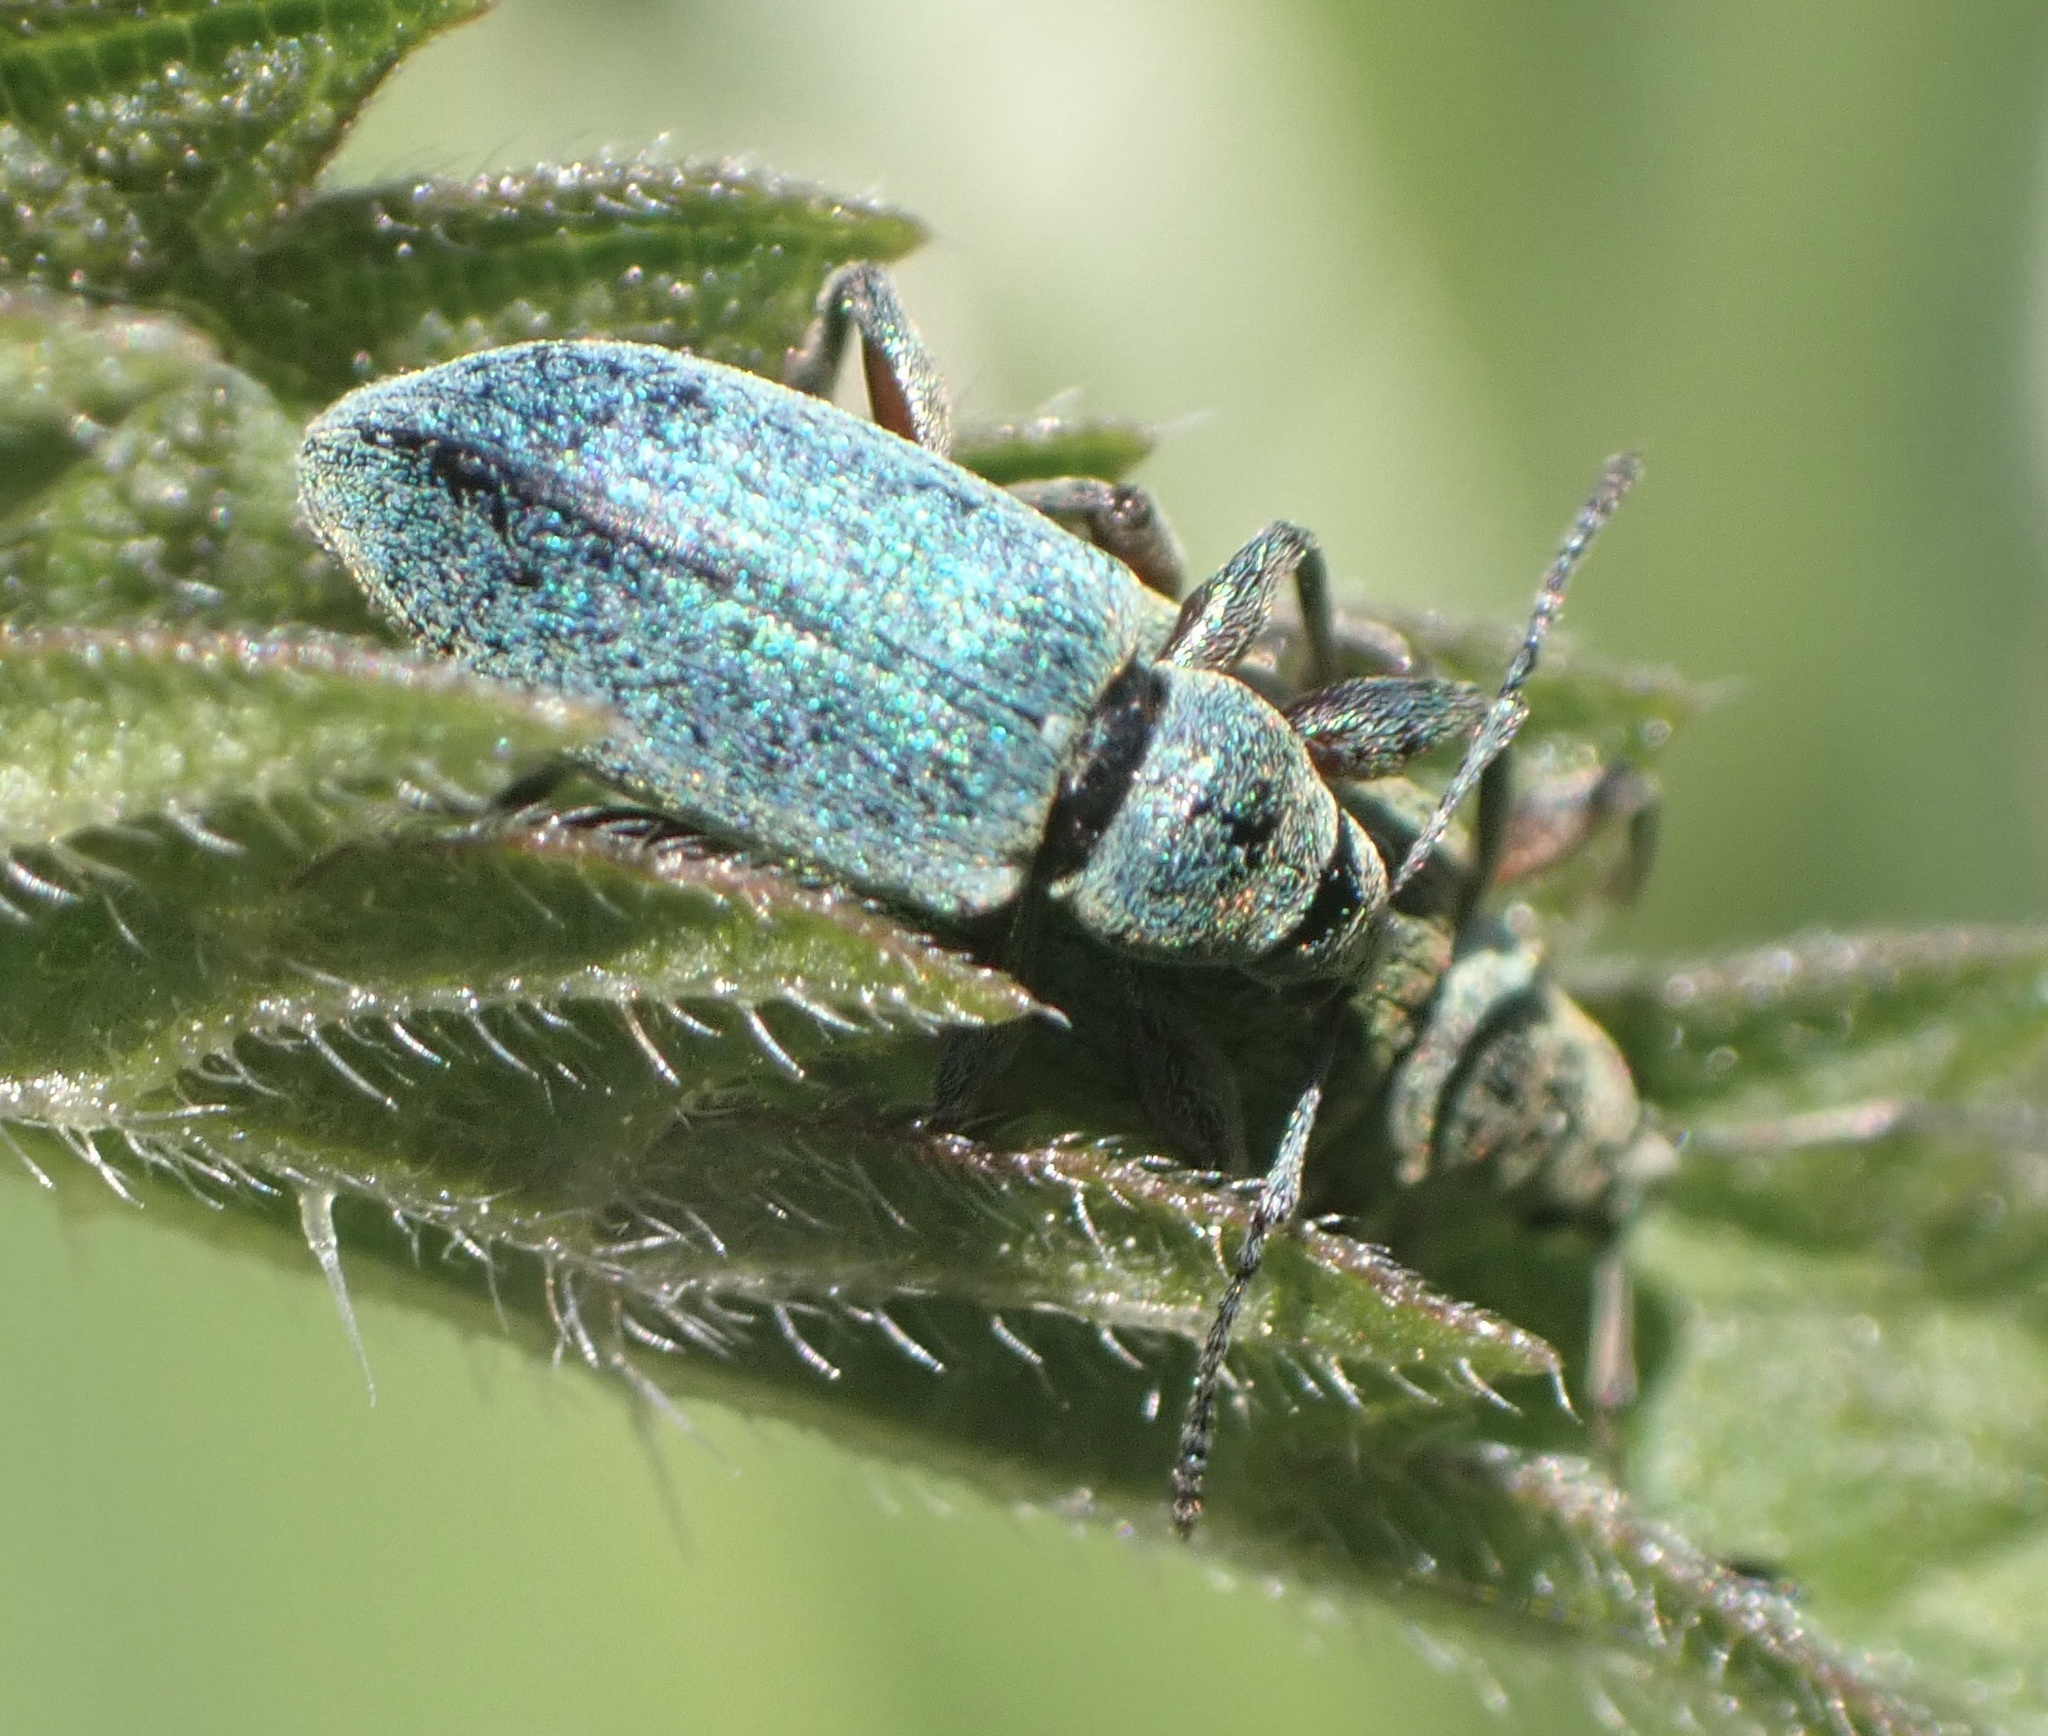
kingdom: Animalia
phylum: Arthropoda
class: Insecta
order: Coleoptera
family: Curculionidae
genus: Phyllobius
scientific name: Phyllobius pomaceus
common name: Green nettle weevil
